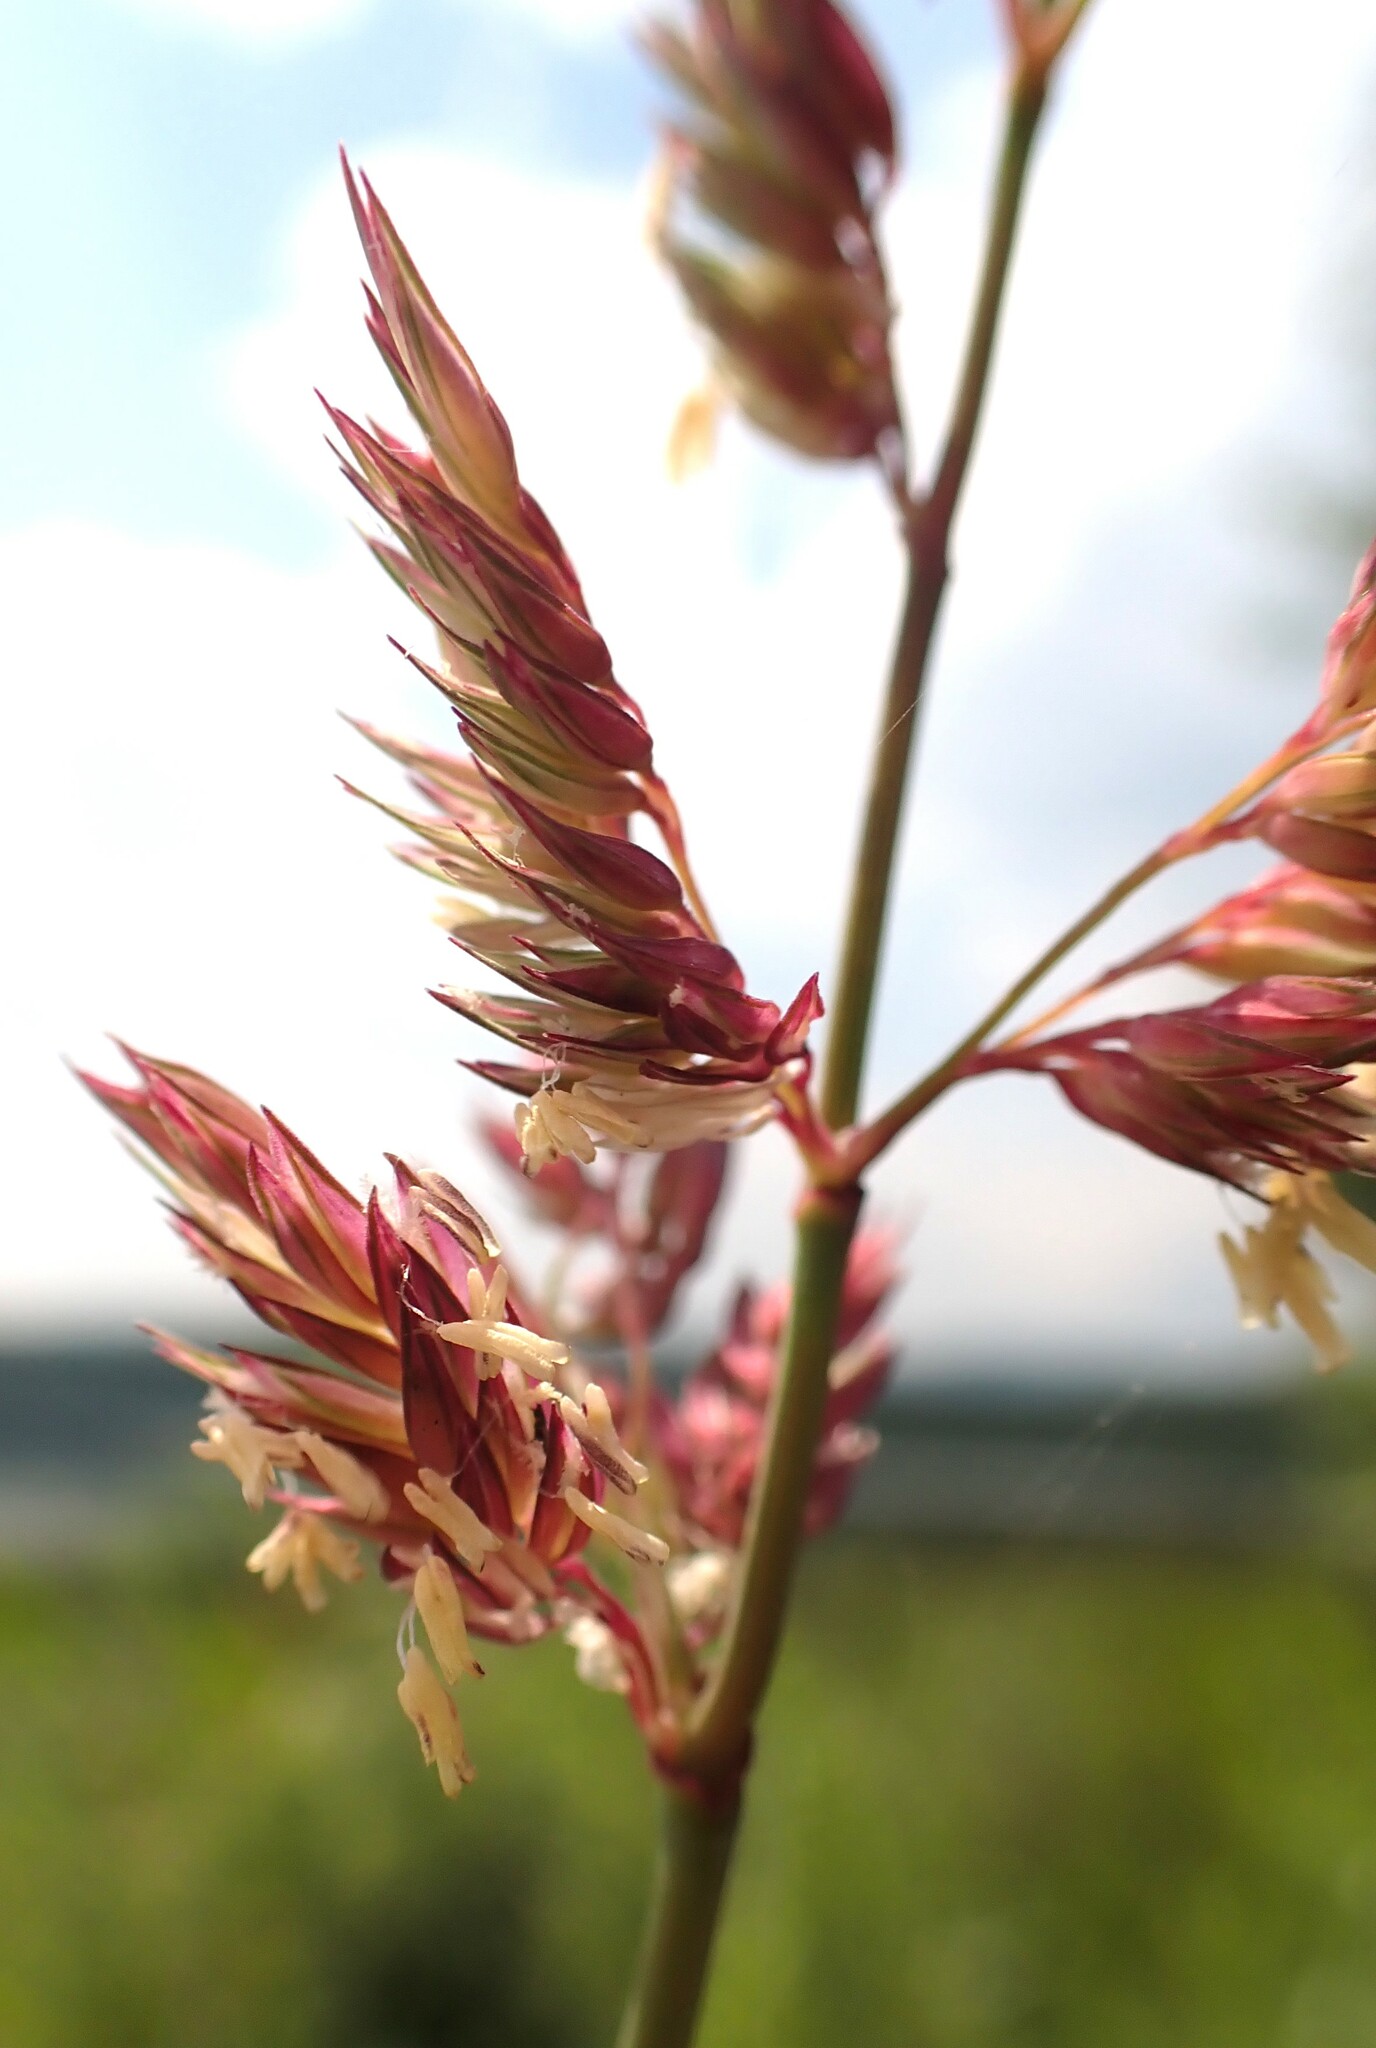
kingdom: Plantae
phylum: Tracheophyta
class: Liliopsida
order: Poales
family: Poaceae
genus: Phalaris
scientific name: Phalaris arundinacea
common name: Reed canary-grass
